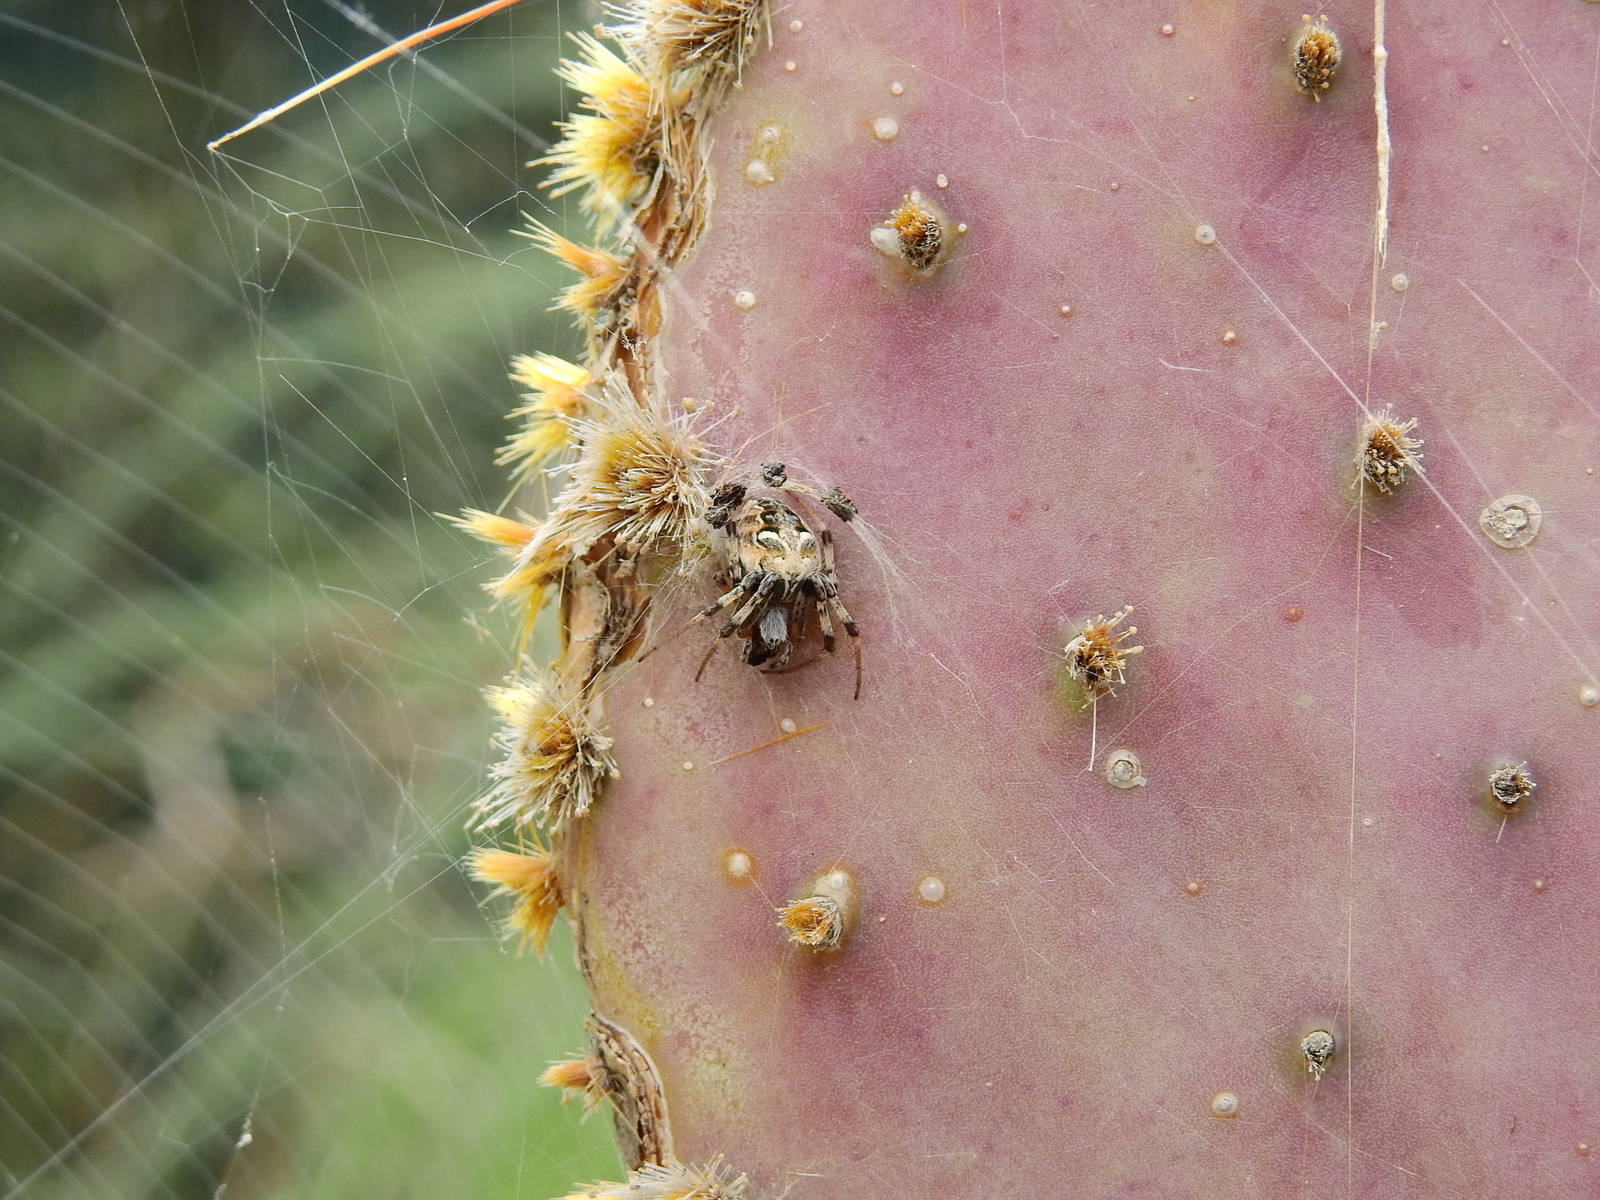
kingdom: Animalia
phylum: Arthropoda
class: Arachnida
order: Araneae
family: Araneidae
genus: Metepeira
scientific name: Metepeira
